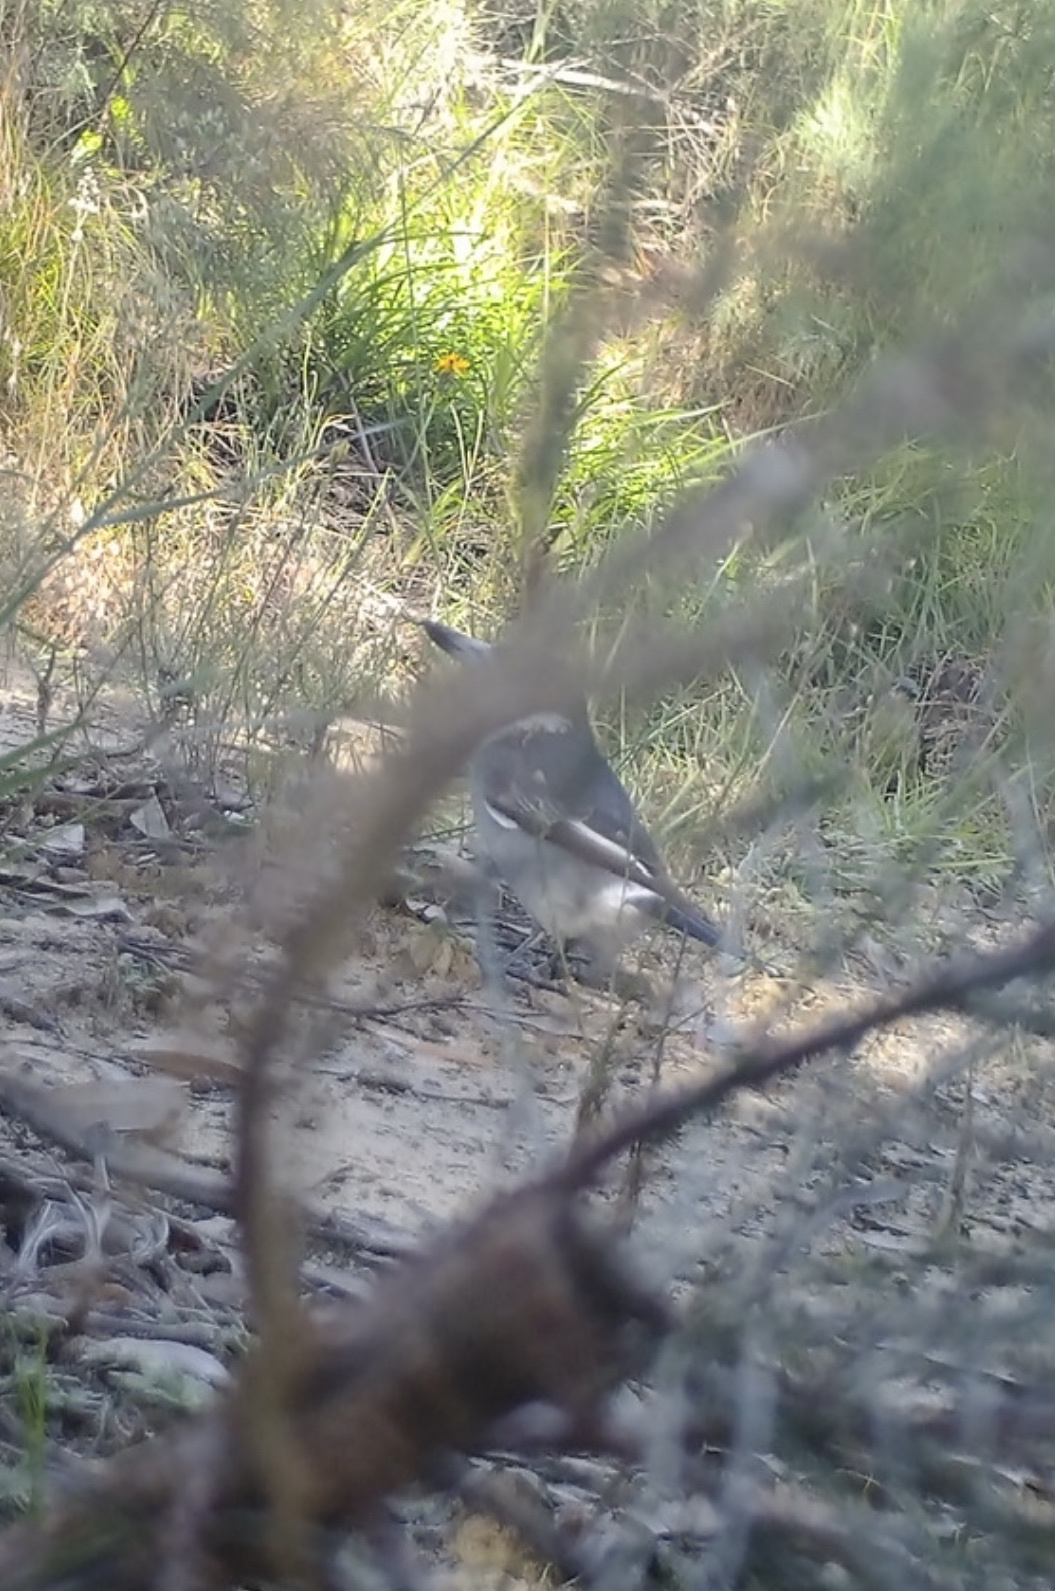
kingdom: Animalia
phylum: Chordata
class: Aves
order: Passeriformes
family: Cracticidae
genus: Cracticus
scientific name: Cracticus torquatus
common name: Grey butcherbird
